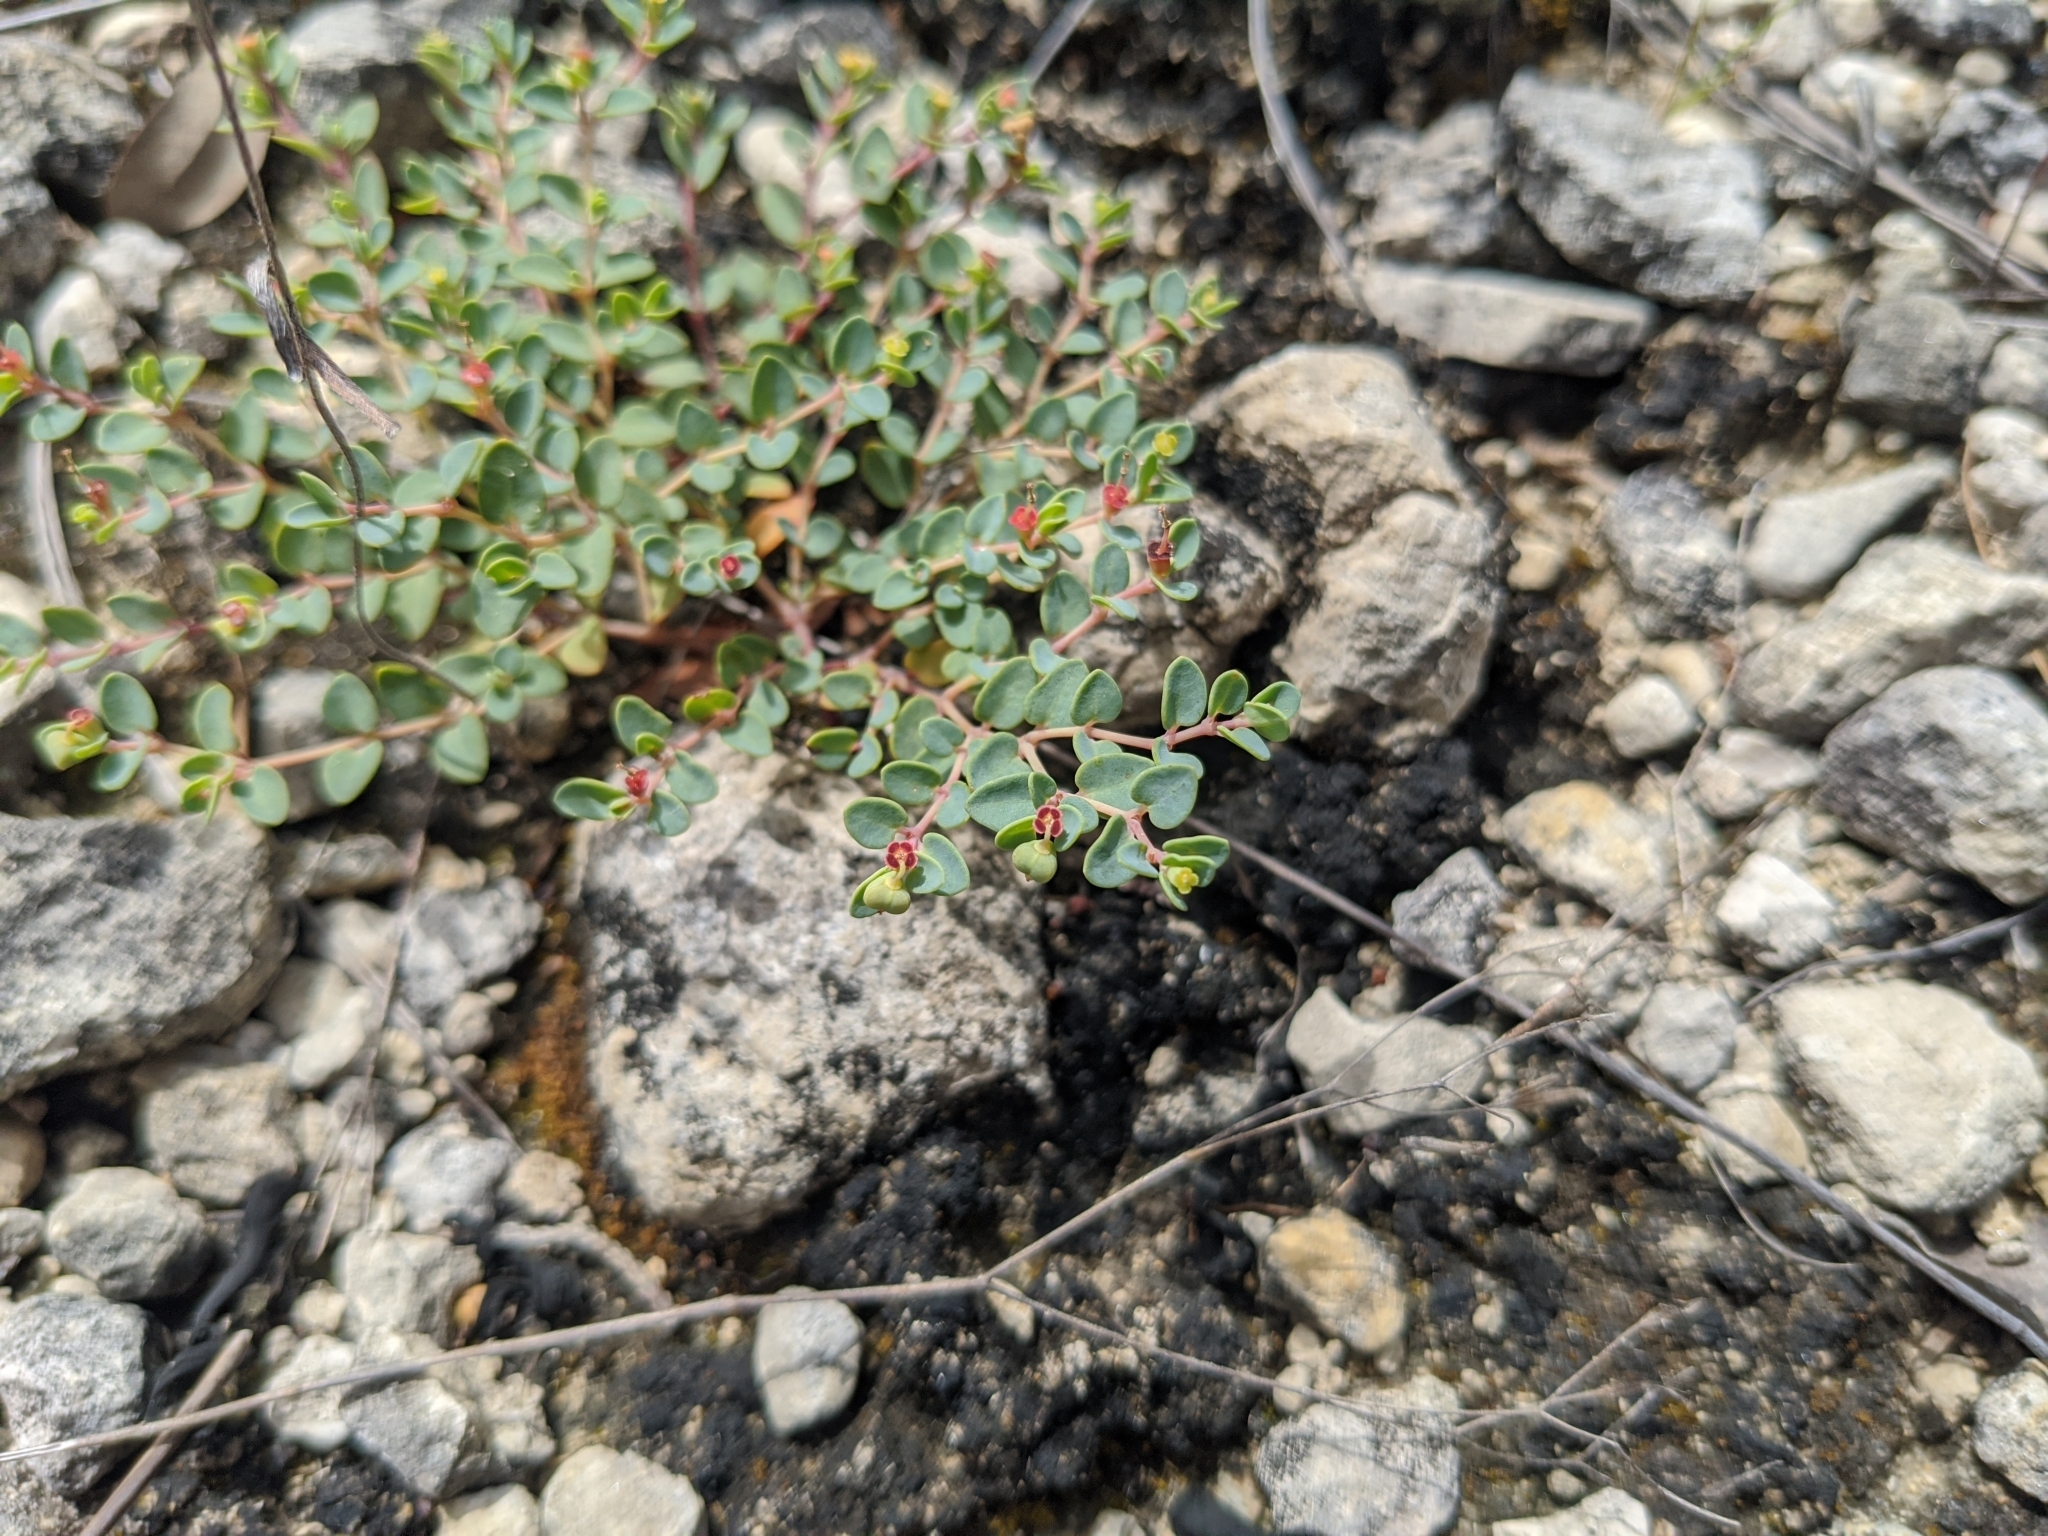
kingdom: Plantae
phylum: Tracheophyta
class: Magnoliopsida
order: Malpighiales
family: Euphorbiaceae
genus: Euphorbia
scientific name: Euphorbia fendleri
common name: Fendler's euphorbia
